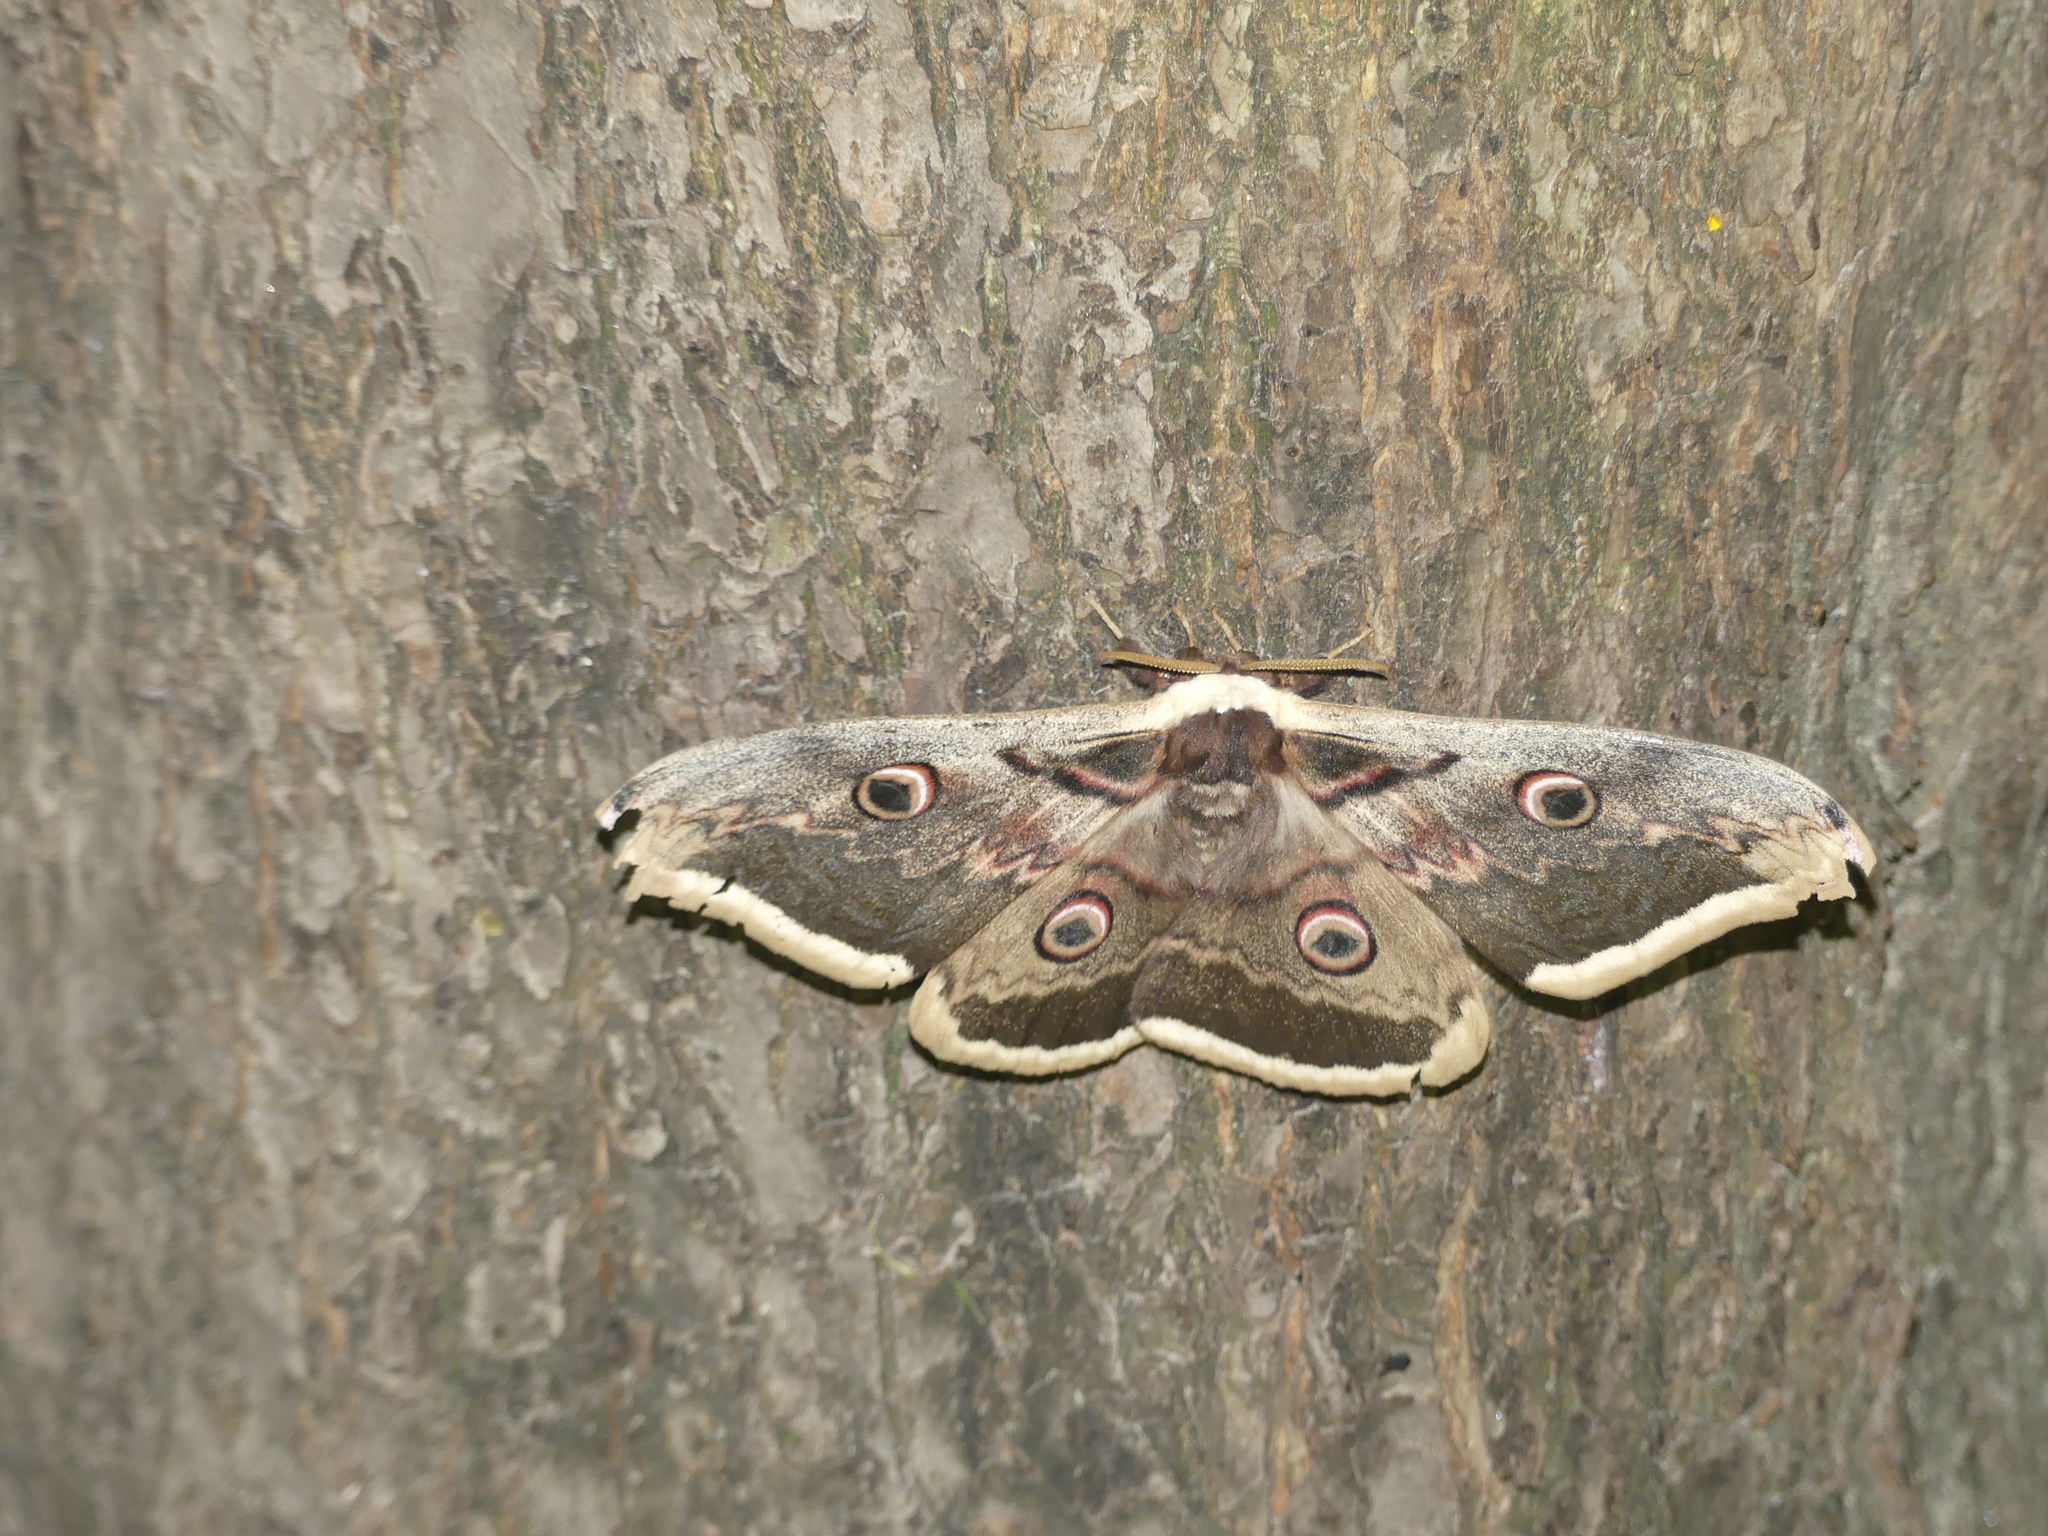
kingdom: Animalia
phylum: Arthropoda
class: Insecta
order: Lepidoptera
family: Saturniidae
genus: Saturnia
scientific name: Saturnia pyri
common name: Great peacock moth
